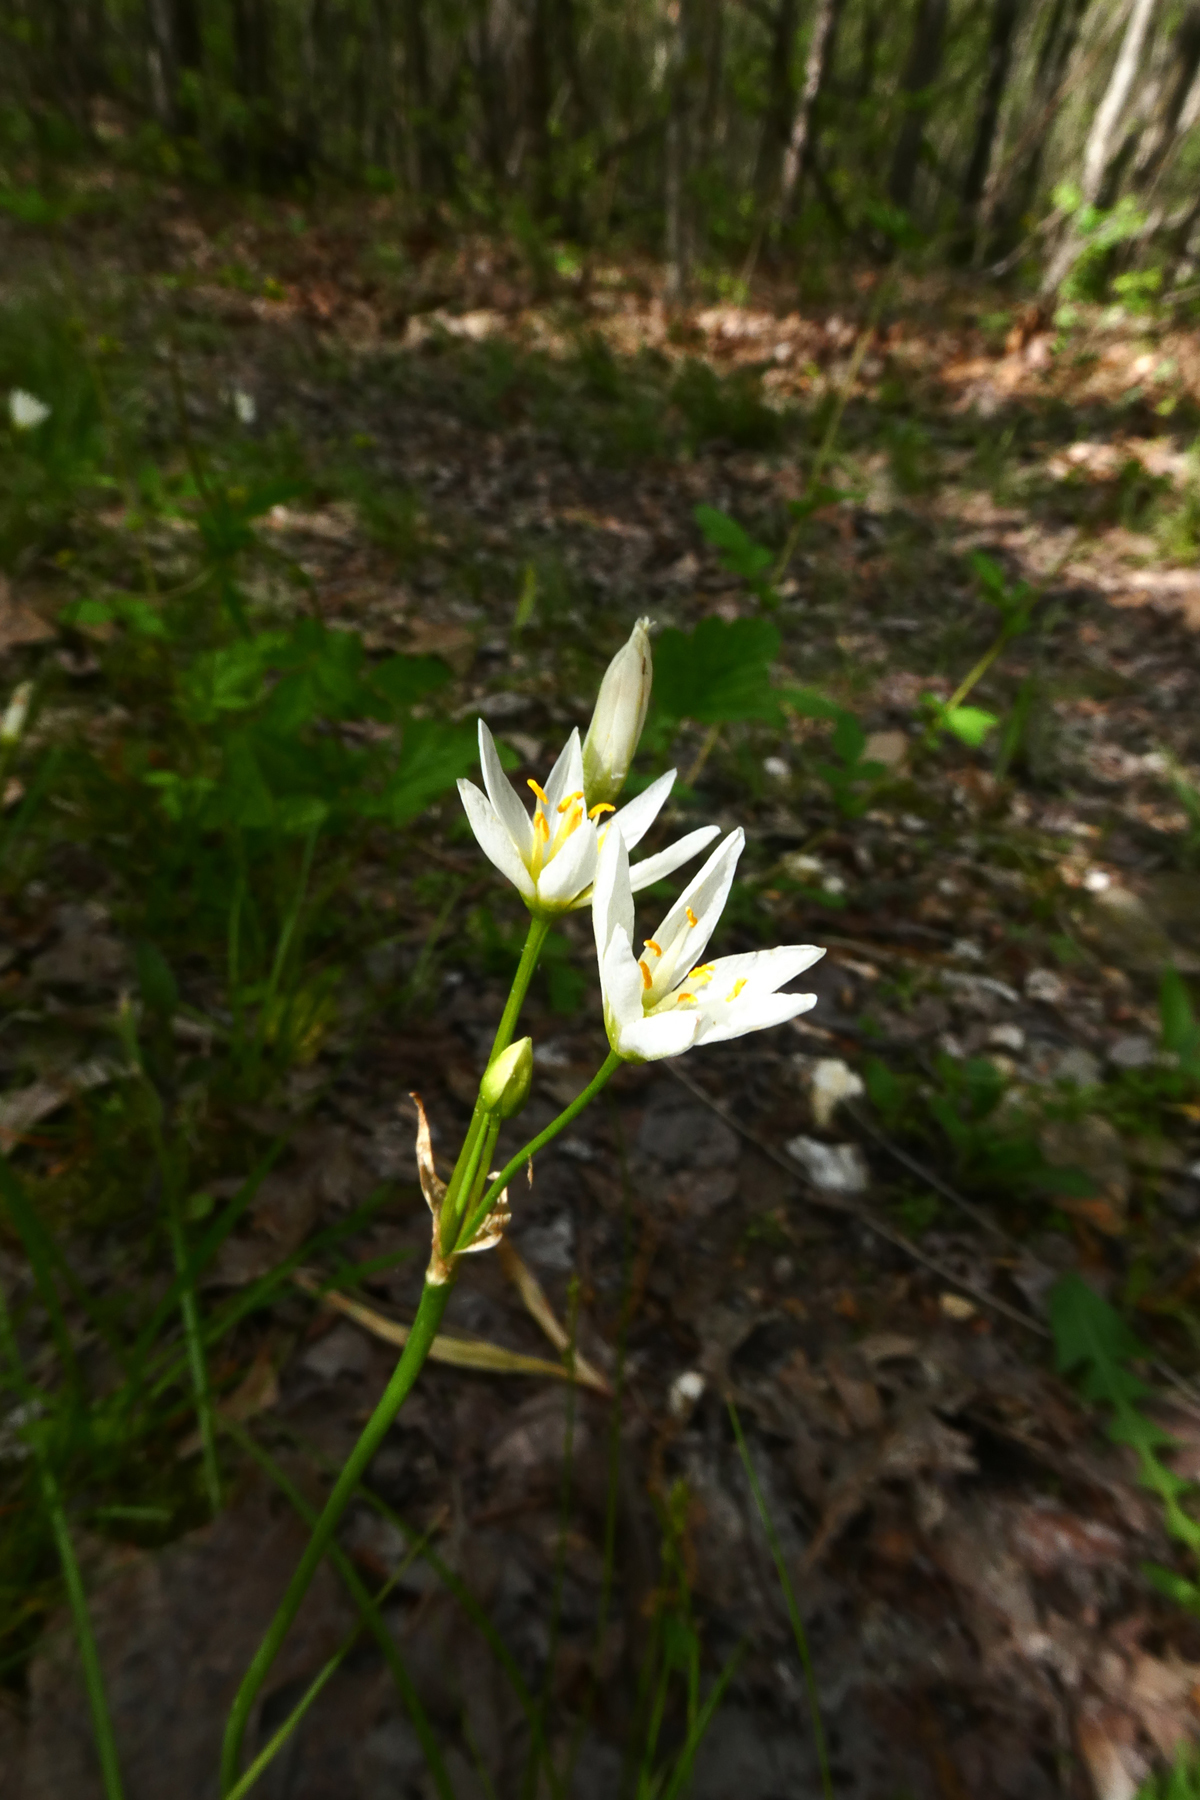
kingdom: Plantae
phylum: Tracheophyta
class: Liliopsida
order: Asparagales
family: Amaryllidaceae
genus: Nothoscordum
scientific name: Nothoscordum bivalve
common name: Crow-poison
